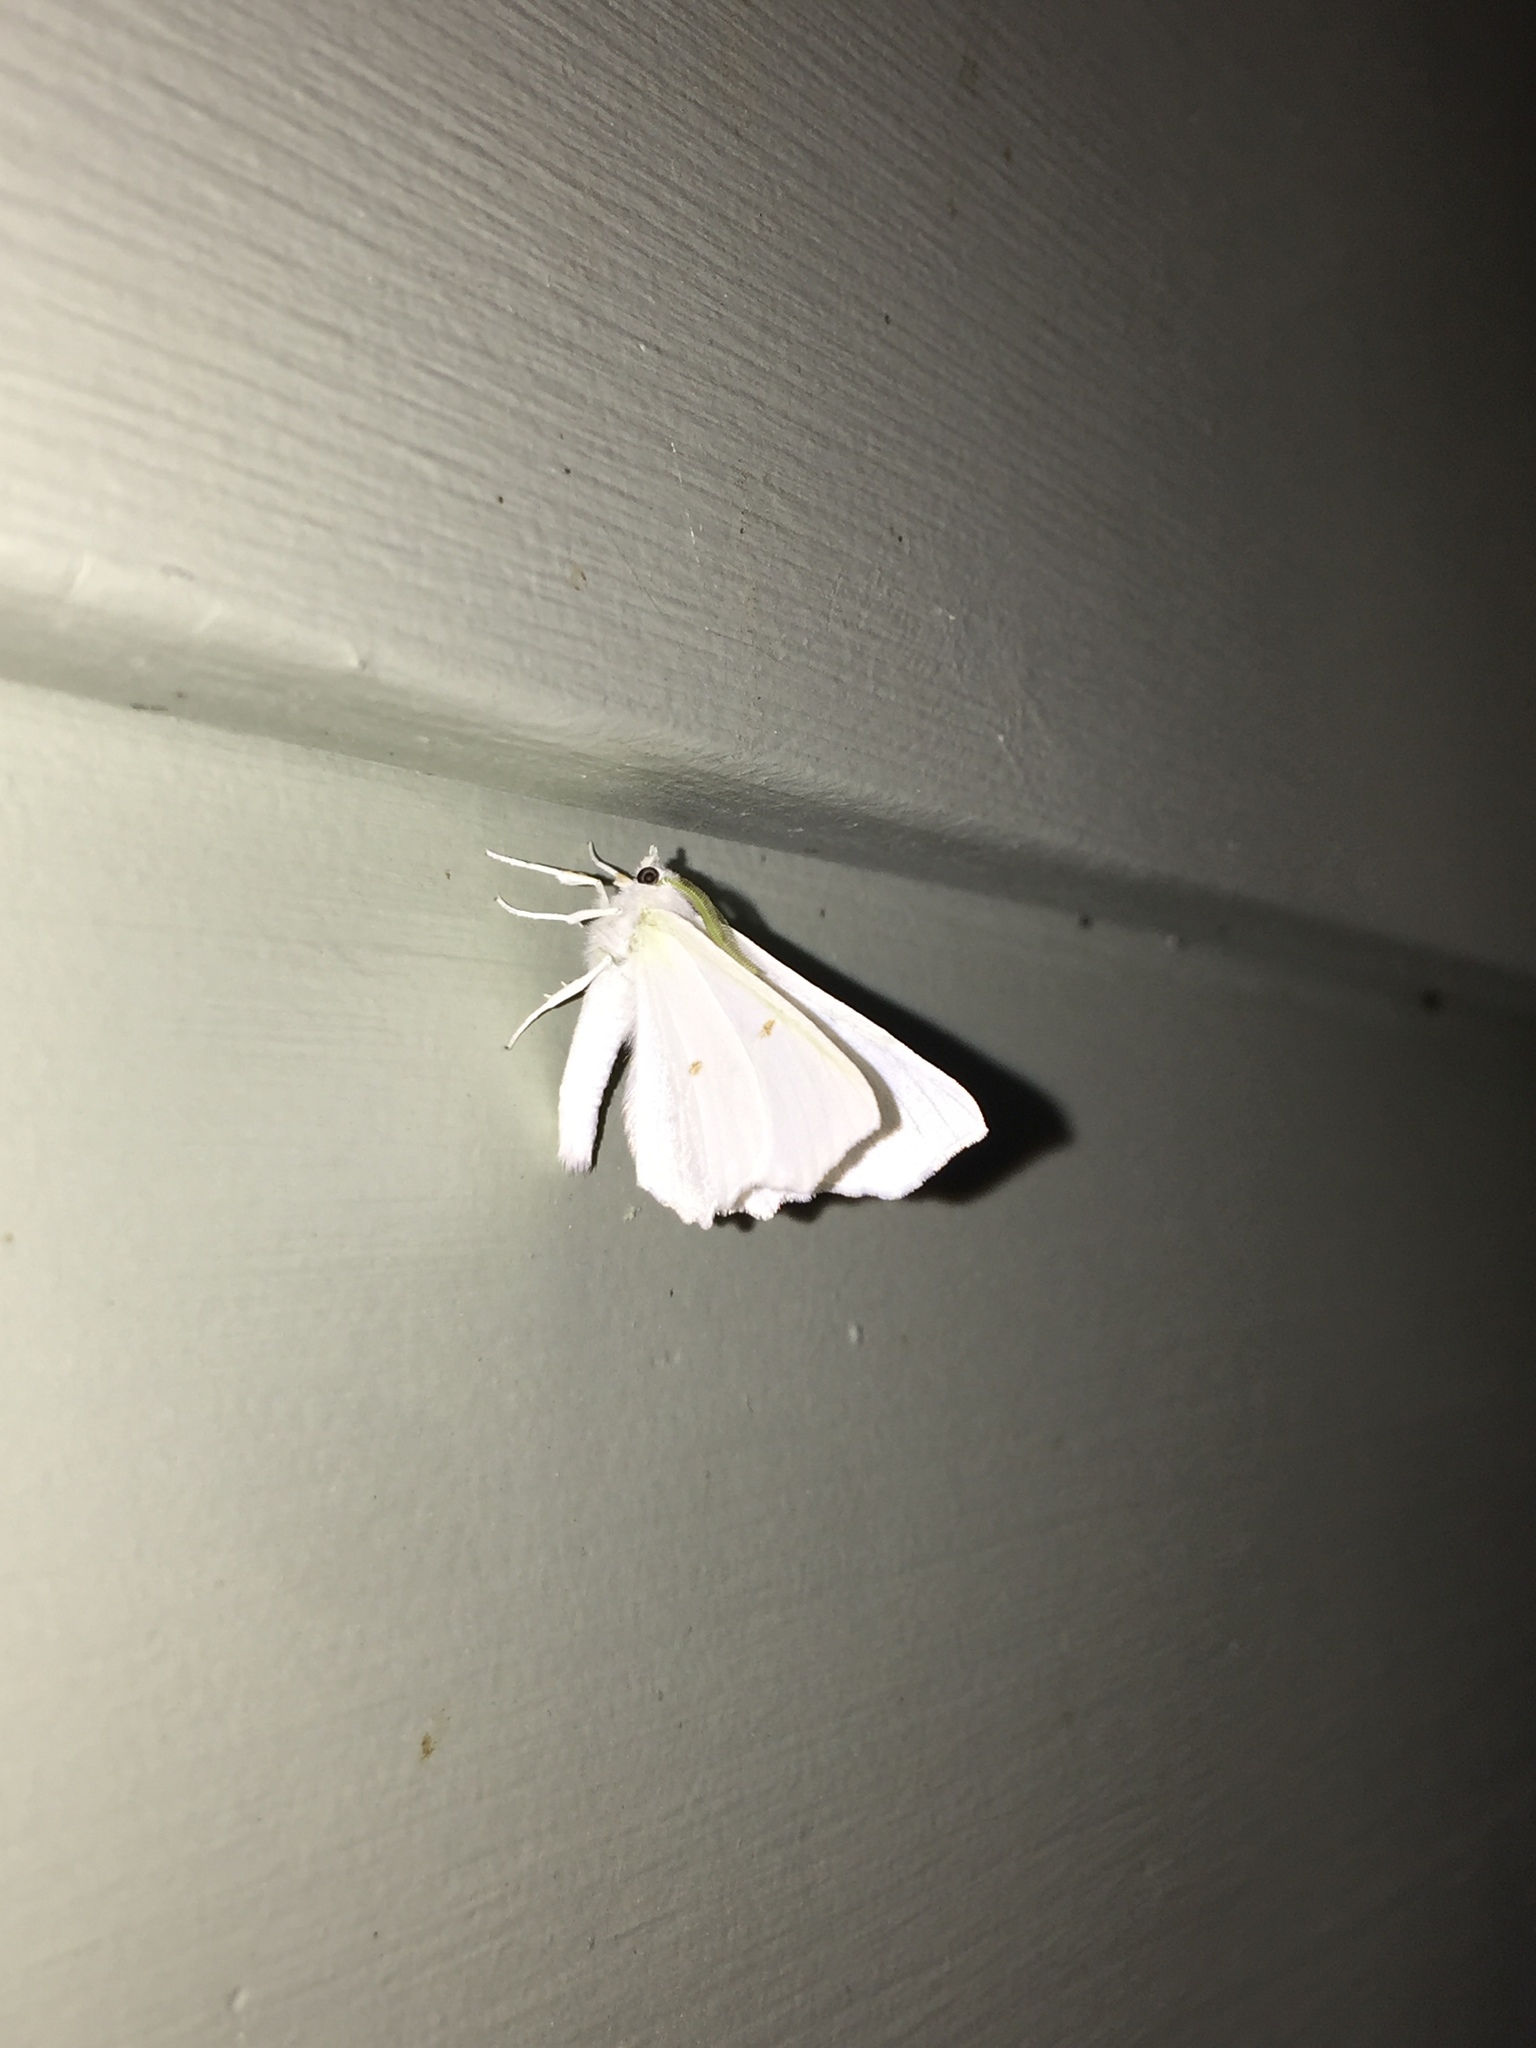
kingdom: Animalia
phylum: Arthropoda
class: Insecta
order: Lepidoptera
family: Geometridae
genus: Ennomos
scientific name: Ennomos subsignaria
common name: Elm spanworm
